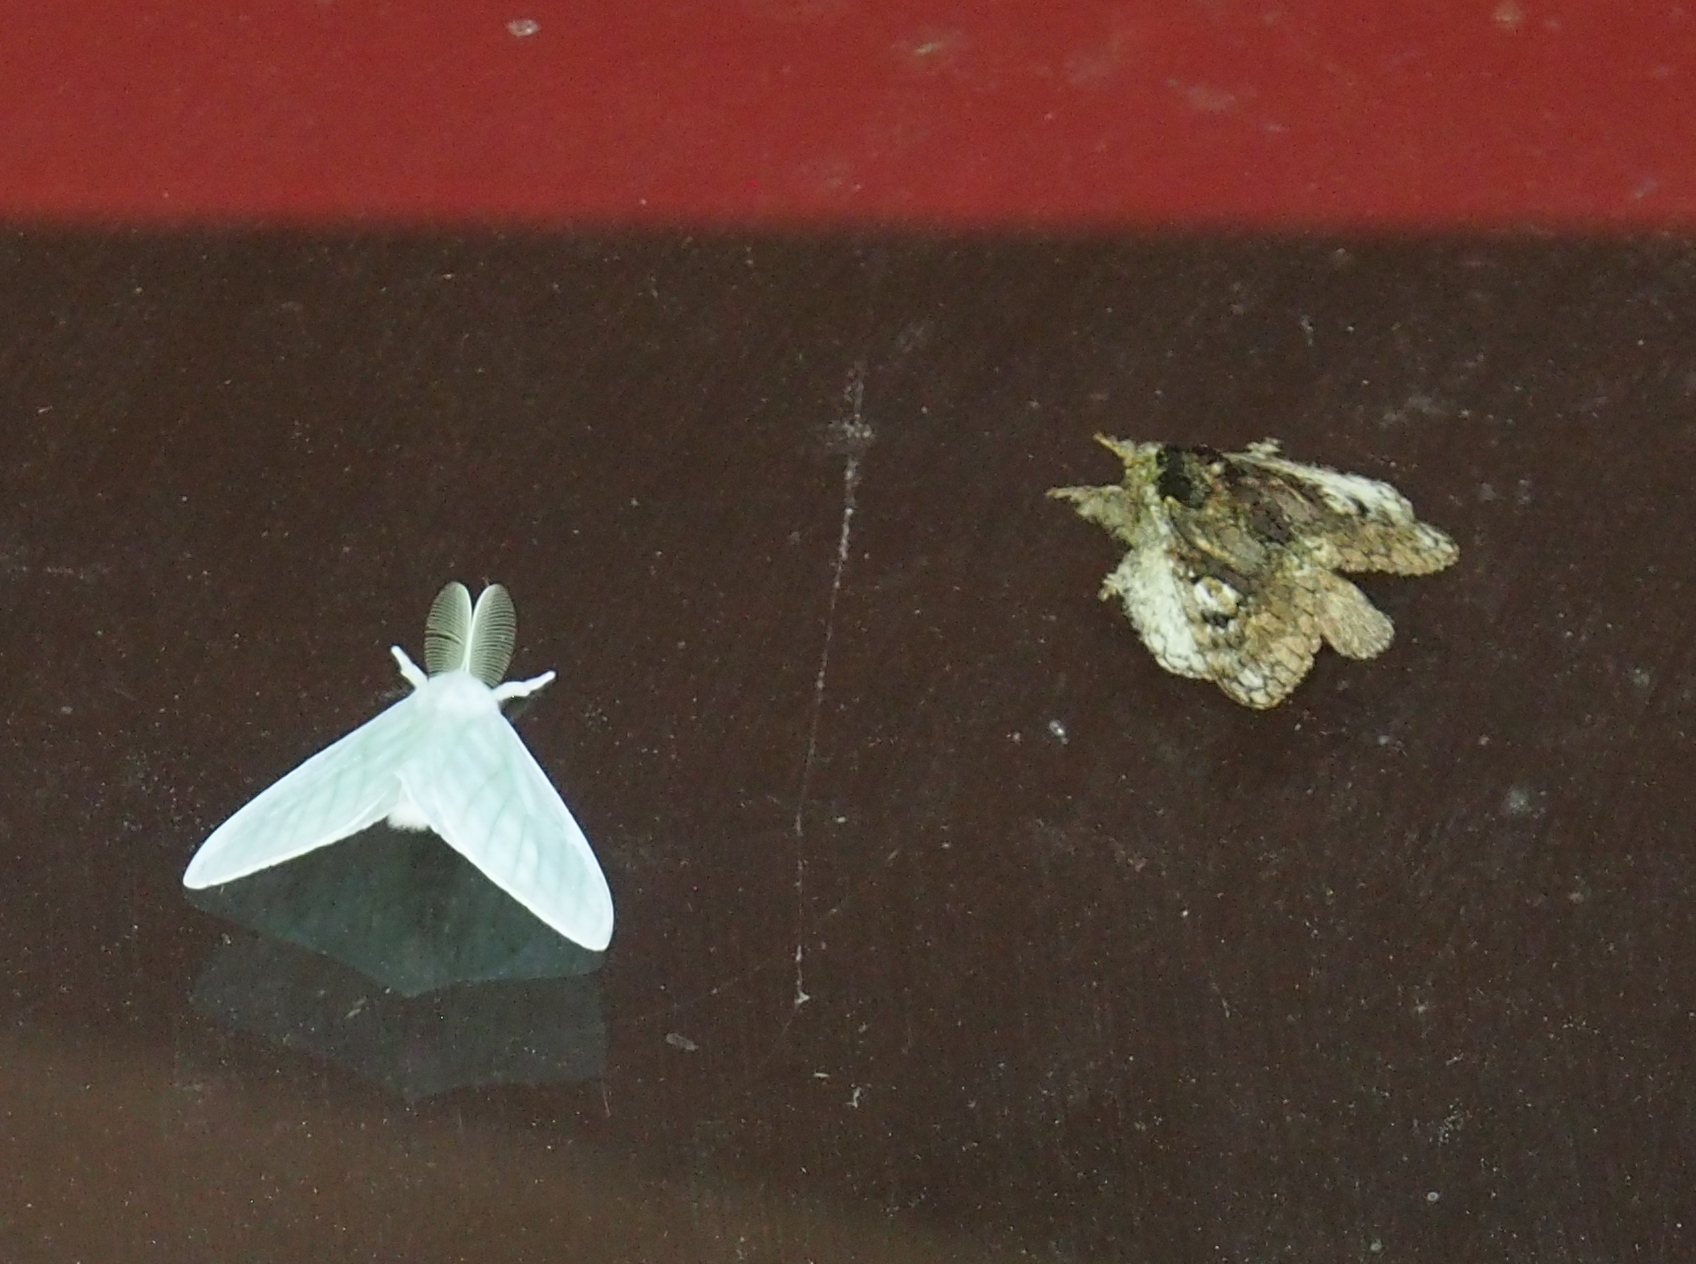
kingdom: Animalia
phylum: Arthropoda
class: Insecta
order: Lepidoptera
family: Lasiocampidae
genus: Euglyphis
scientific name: Euglyphis barda
